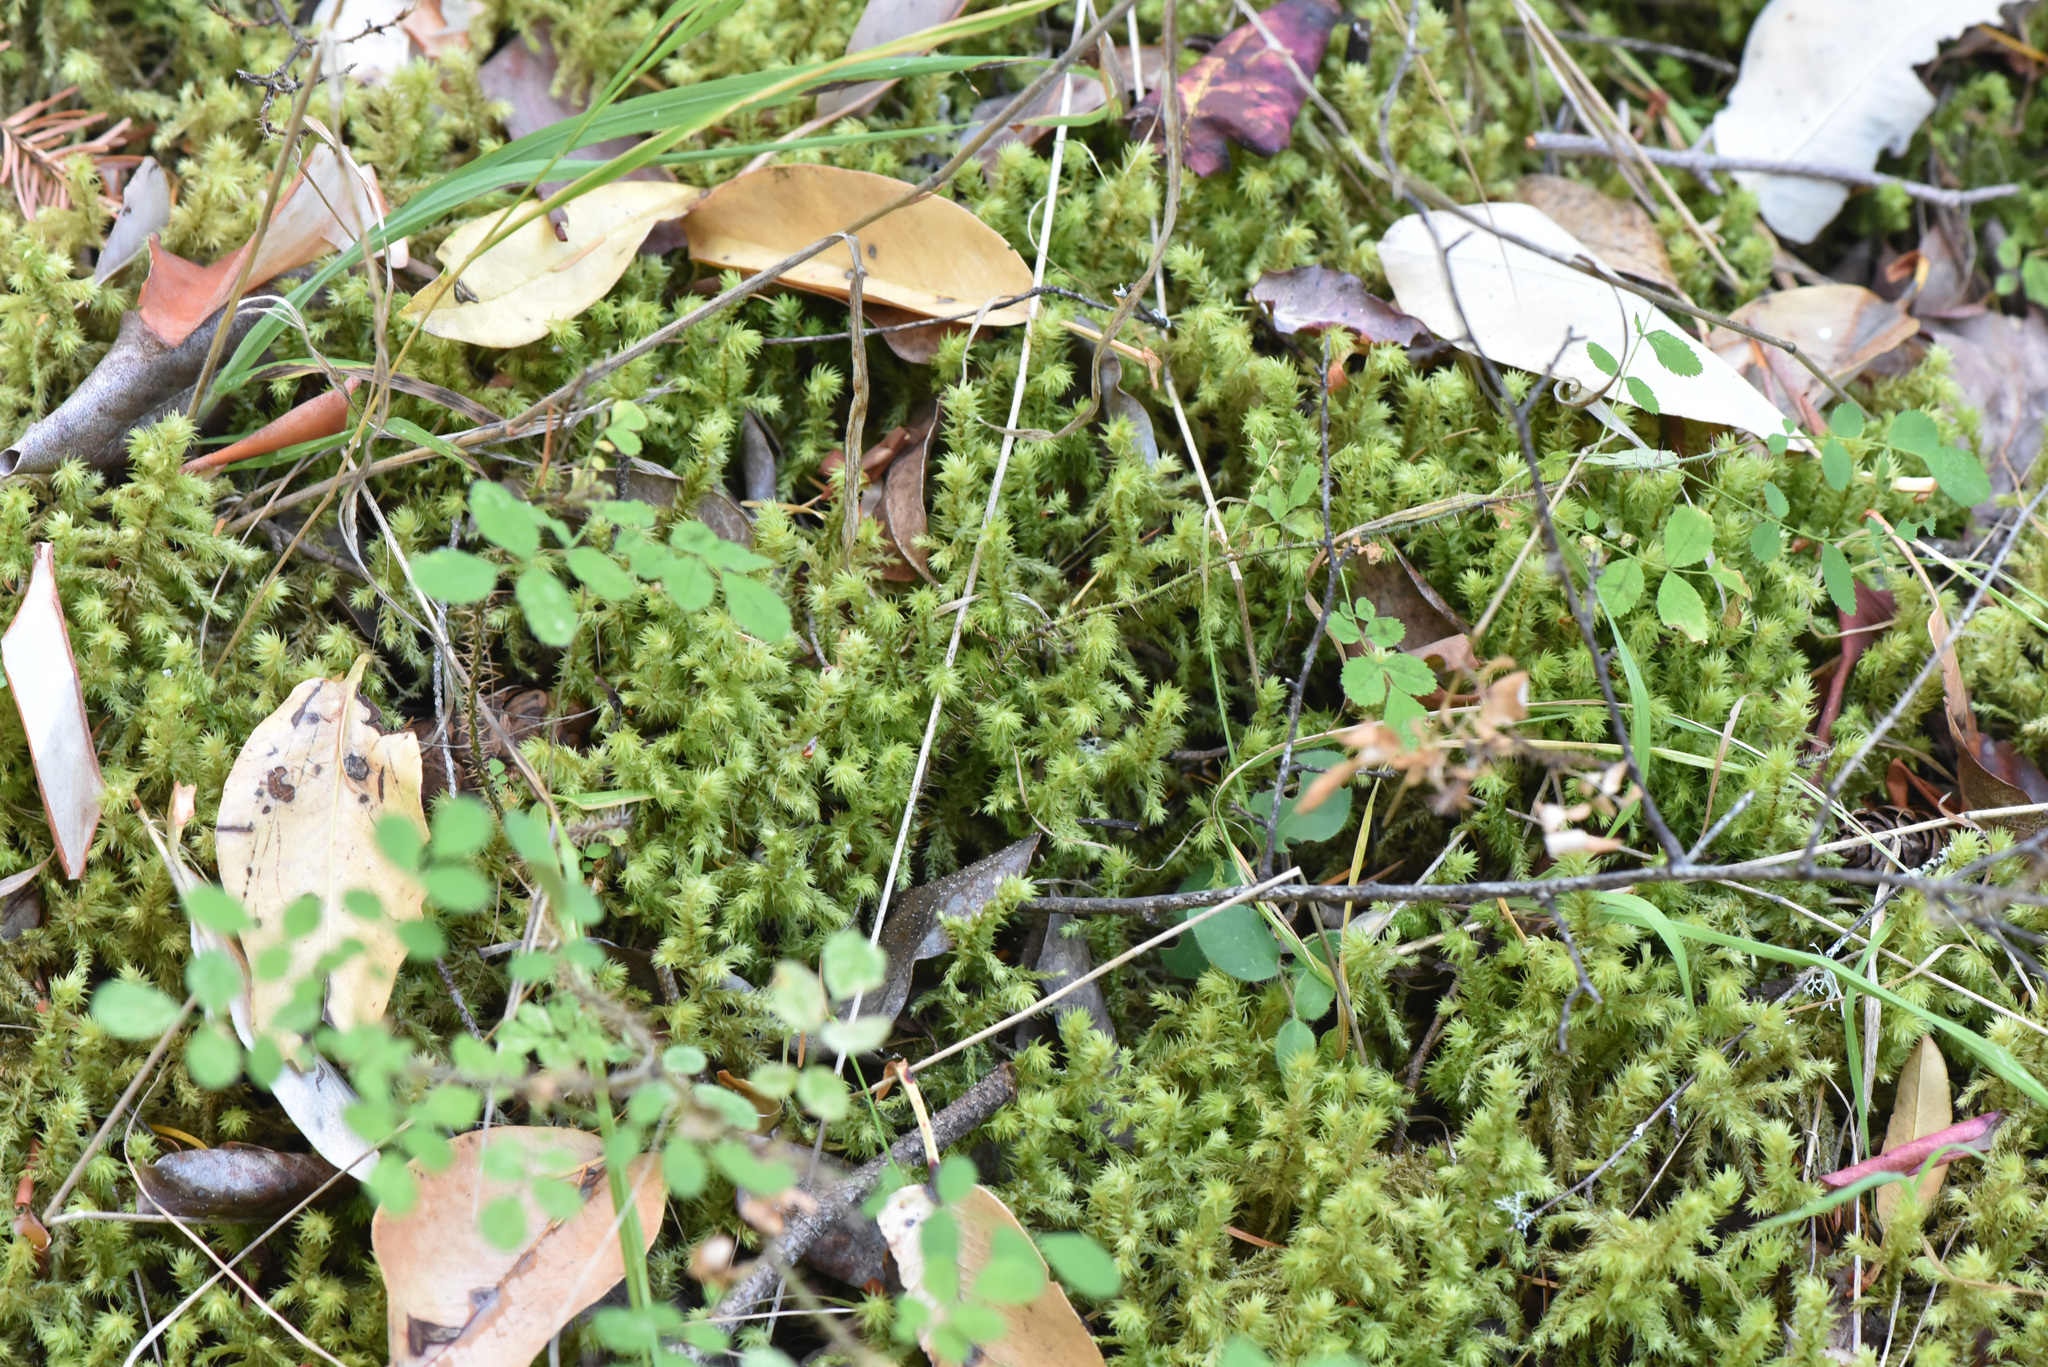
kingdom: Plantae
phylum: Bryophyta
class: Bryopsida
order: Hypnales
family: Hylocomiaceae
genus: Hylocomiadelphus
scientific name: Hylocomiadelphus triquetrus
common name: Rough goose neck moss
